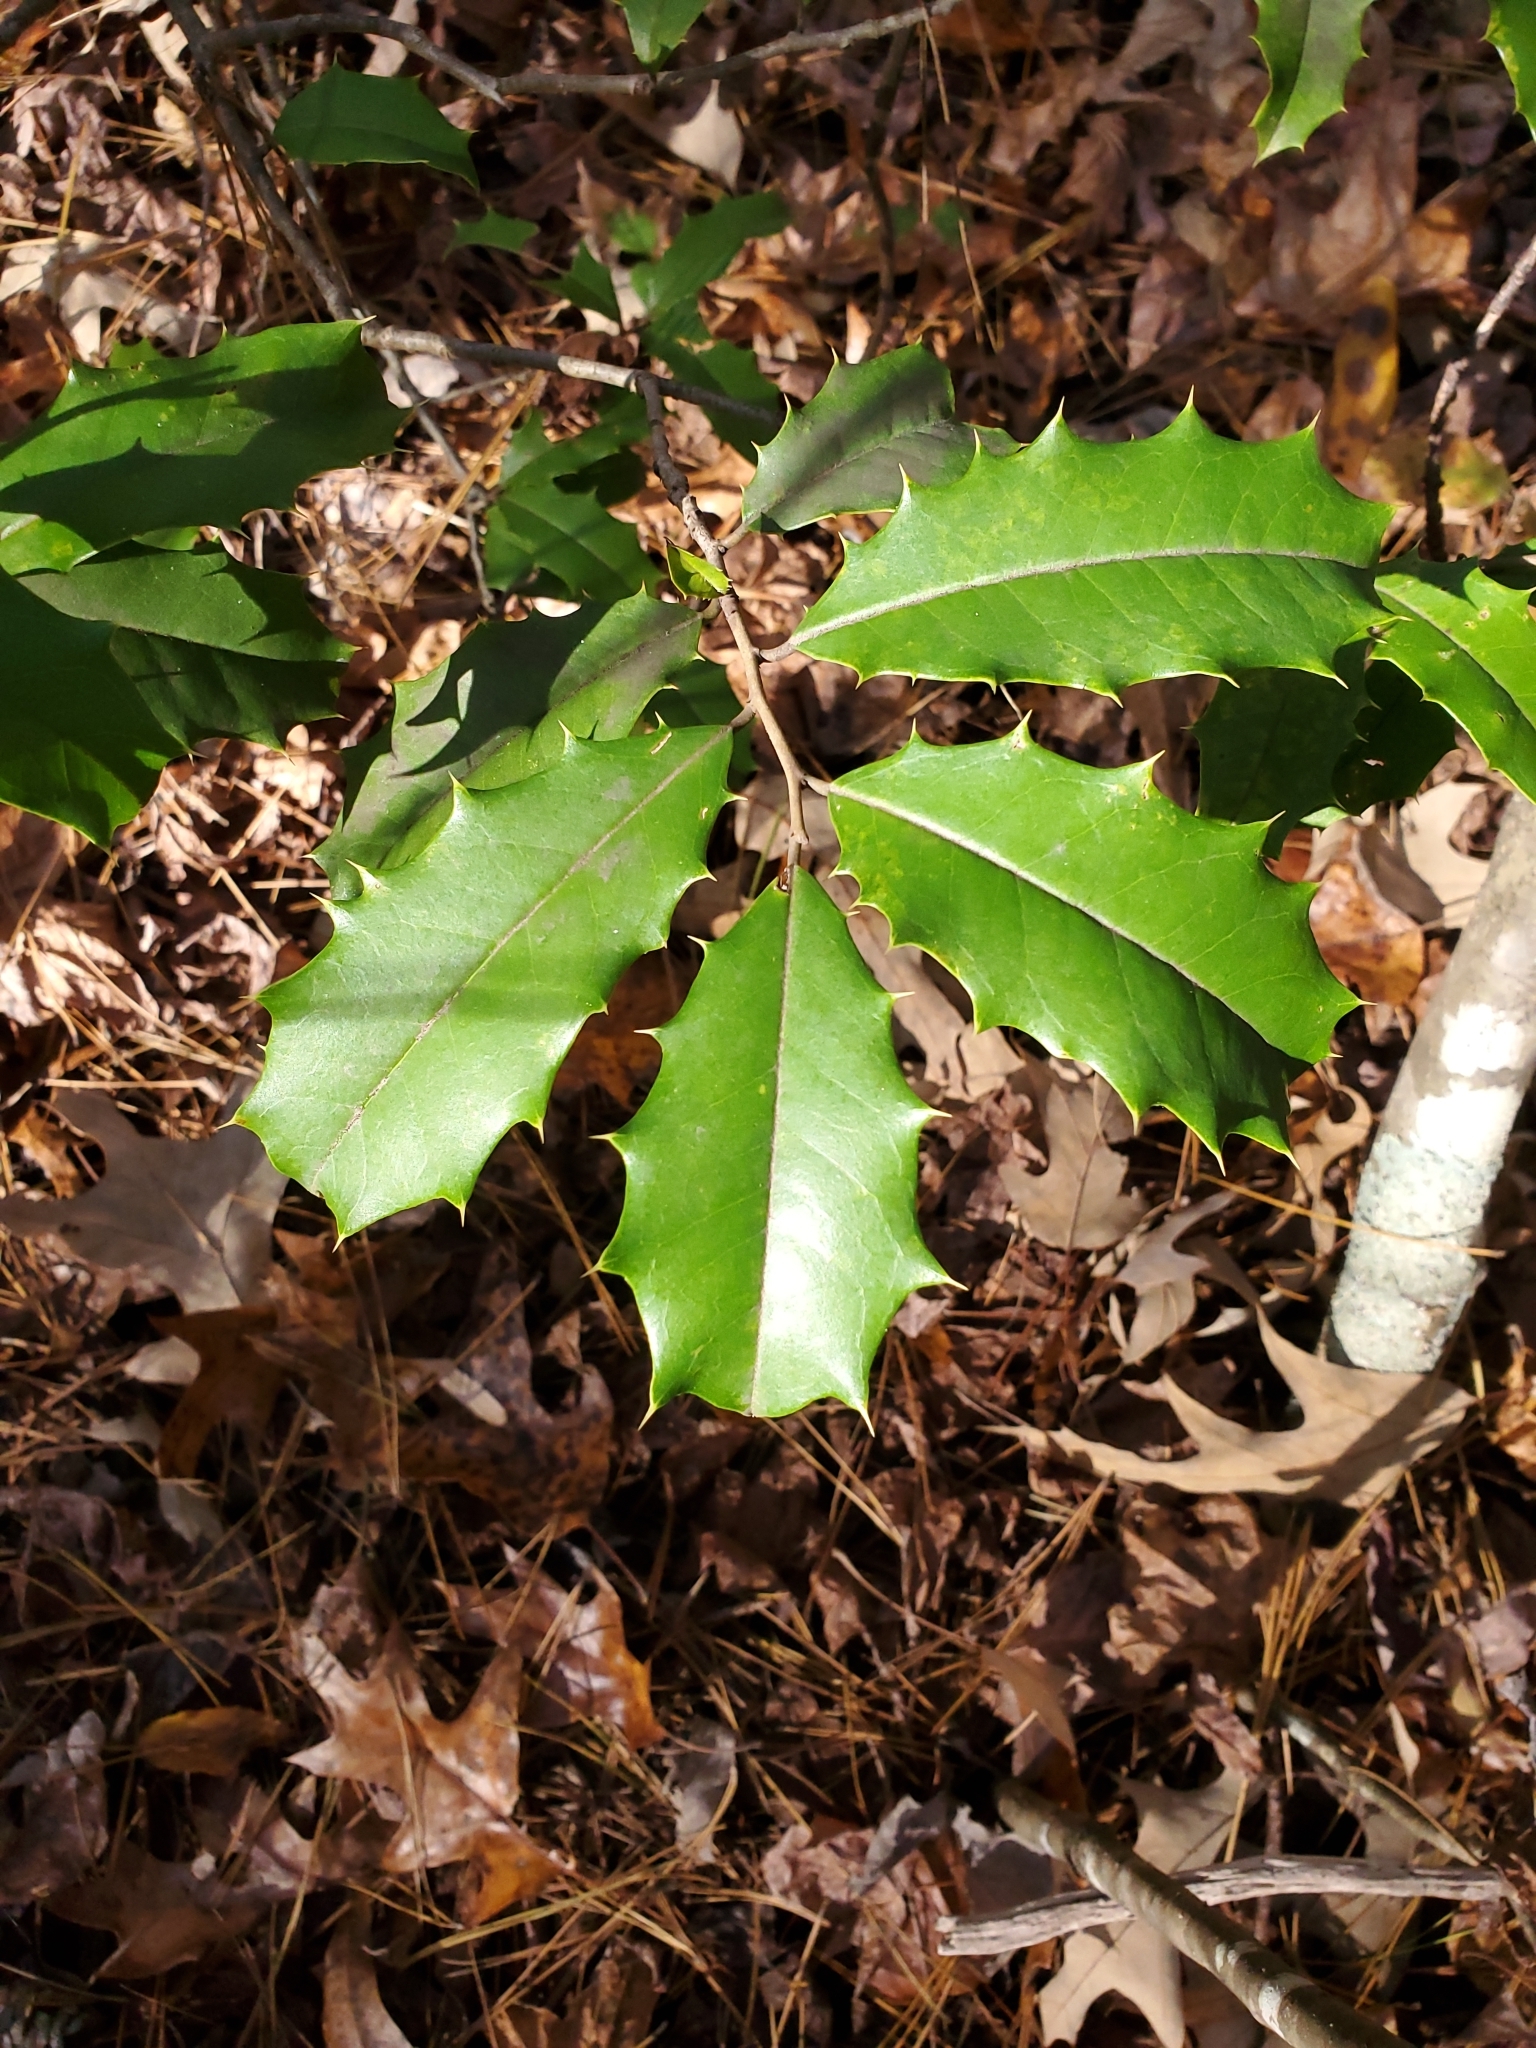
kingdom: Plantae
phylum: Tracheophyta
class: Magnoliopsida
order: Aquifoliales
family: Aquifoliaceae
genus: Ilex
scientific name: Ilex opaca
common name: American holly
